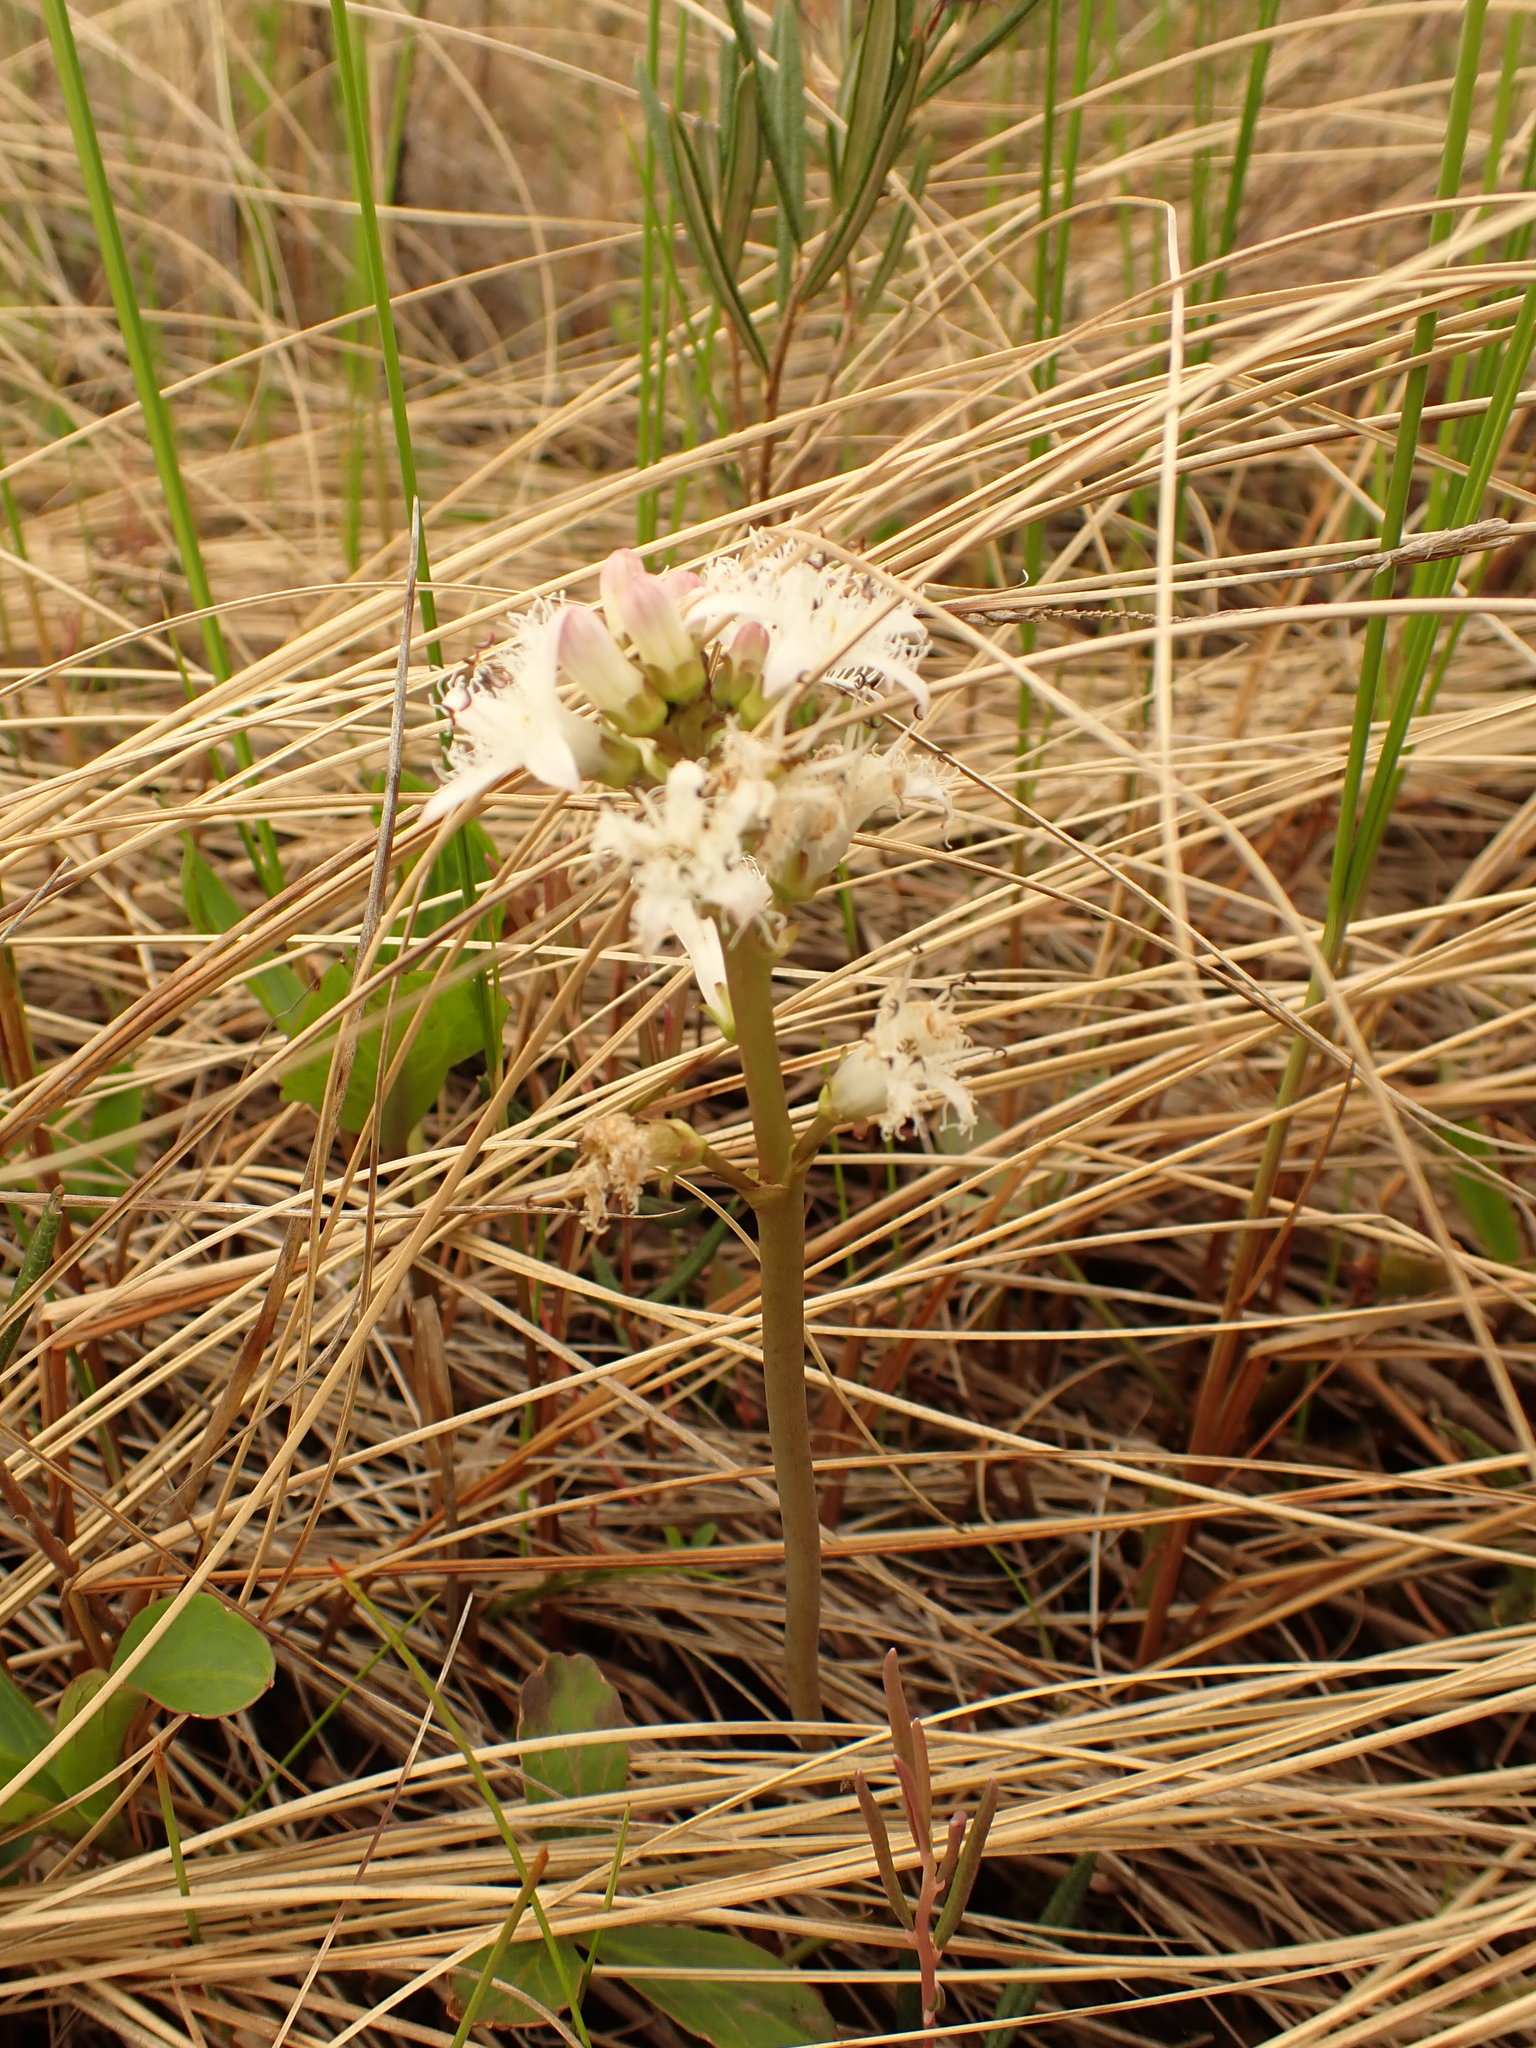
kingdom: Plantae
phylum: Tracheophyta
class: Magnoliopsida
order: Asterales
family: Menyanthaceae
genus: Menyanthes
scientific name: Menyanthes trifoliata
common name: Bogbean
